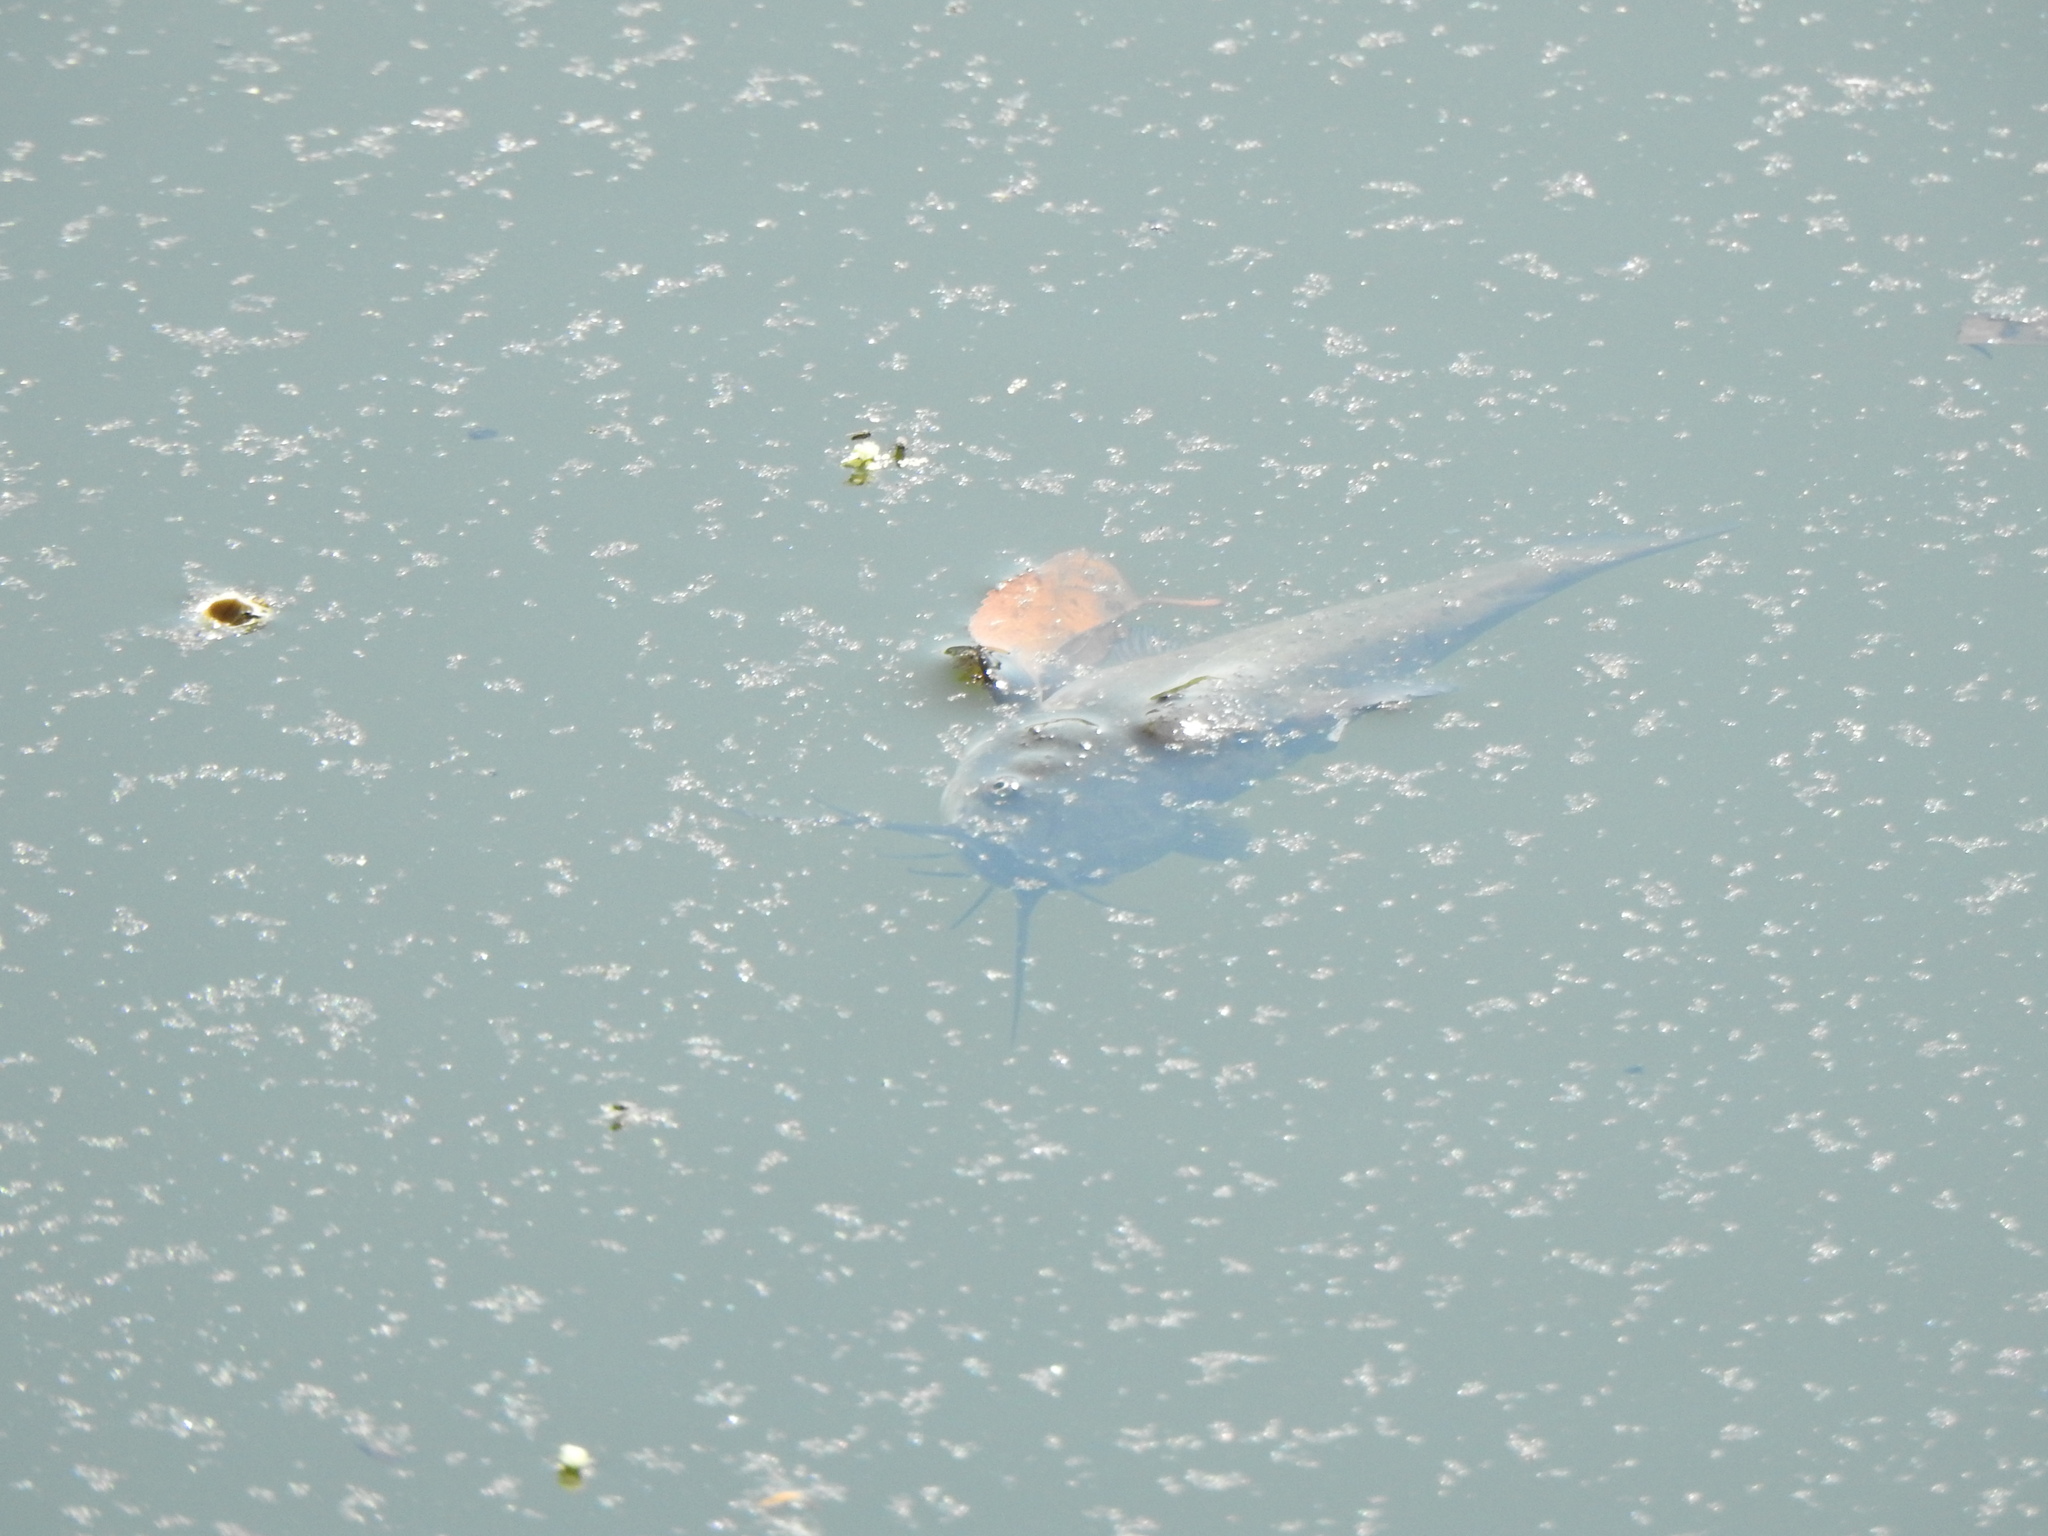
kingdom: Animalia
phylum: Chordata
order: Siluriformes
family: Ictaluridae
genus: Ameiurus
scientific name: Ameiurus melas
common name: Black bullhead
